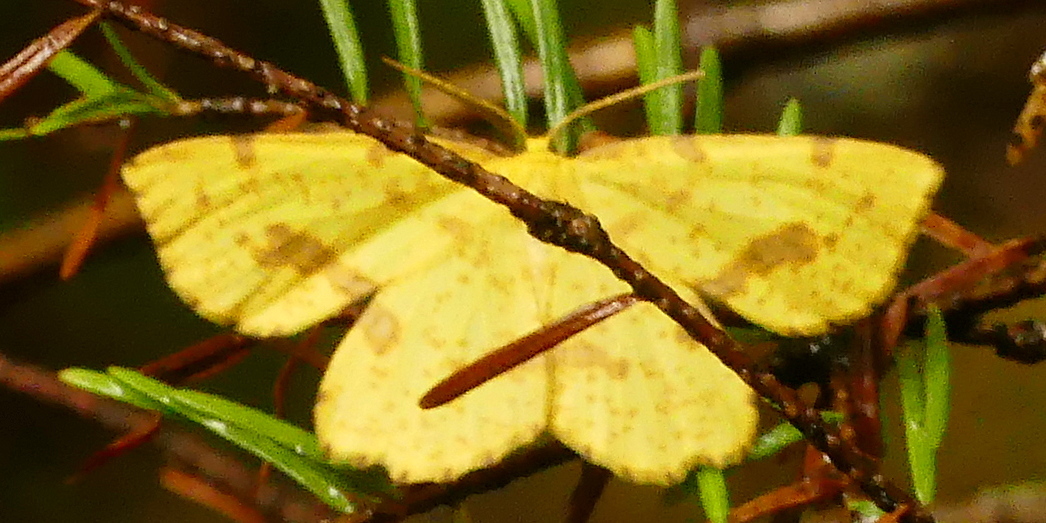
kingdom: Animalia
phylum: Arthropoda
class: Insecta
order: Lepidoptera
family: Geometridae
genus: Xanthotype
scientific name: Xanthotype
